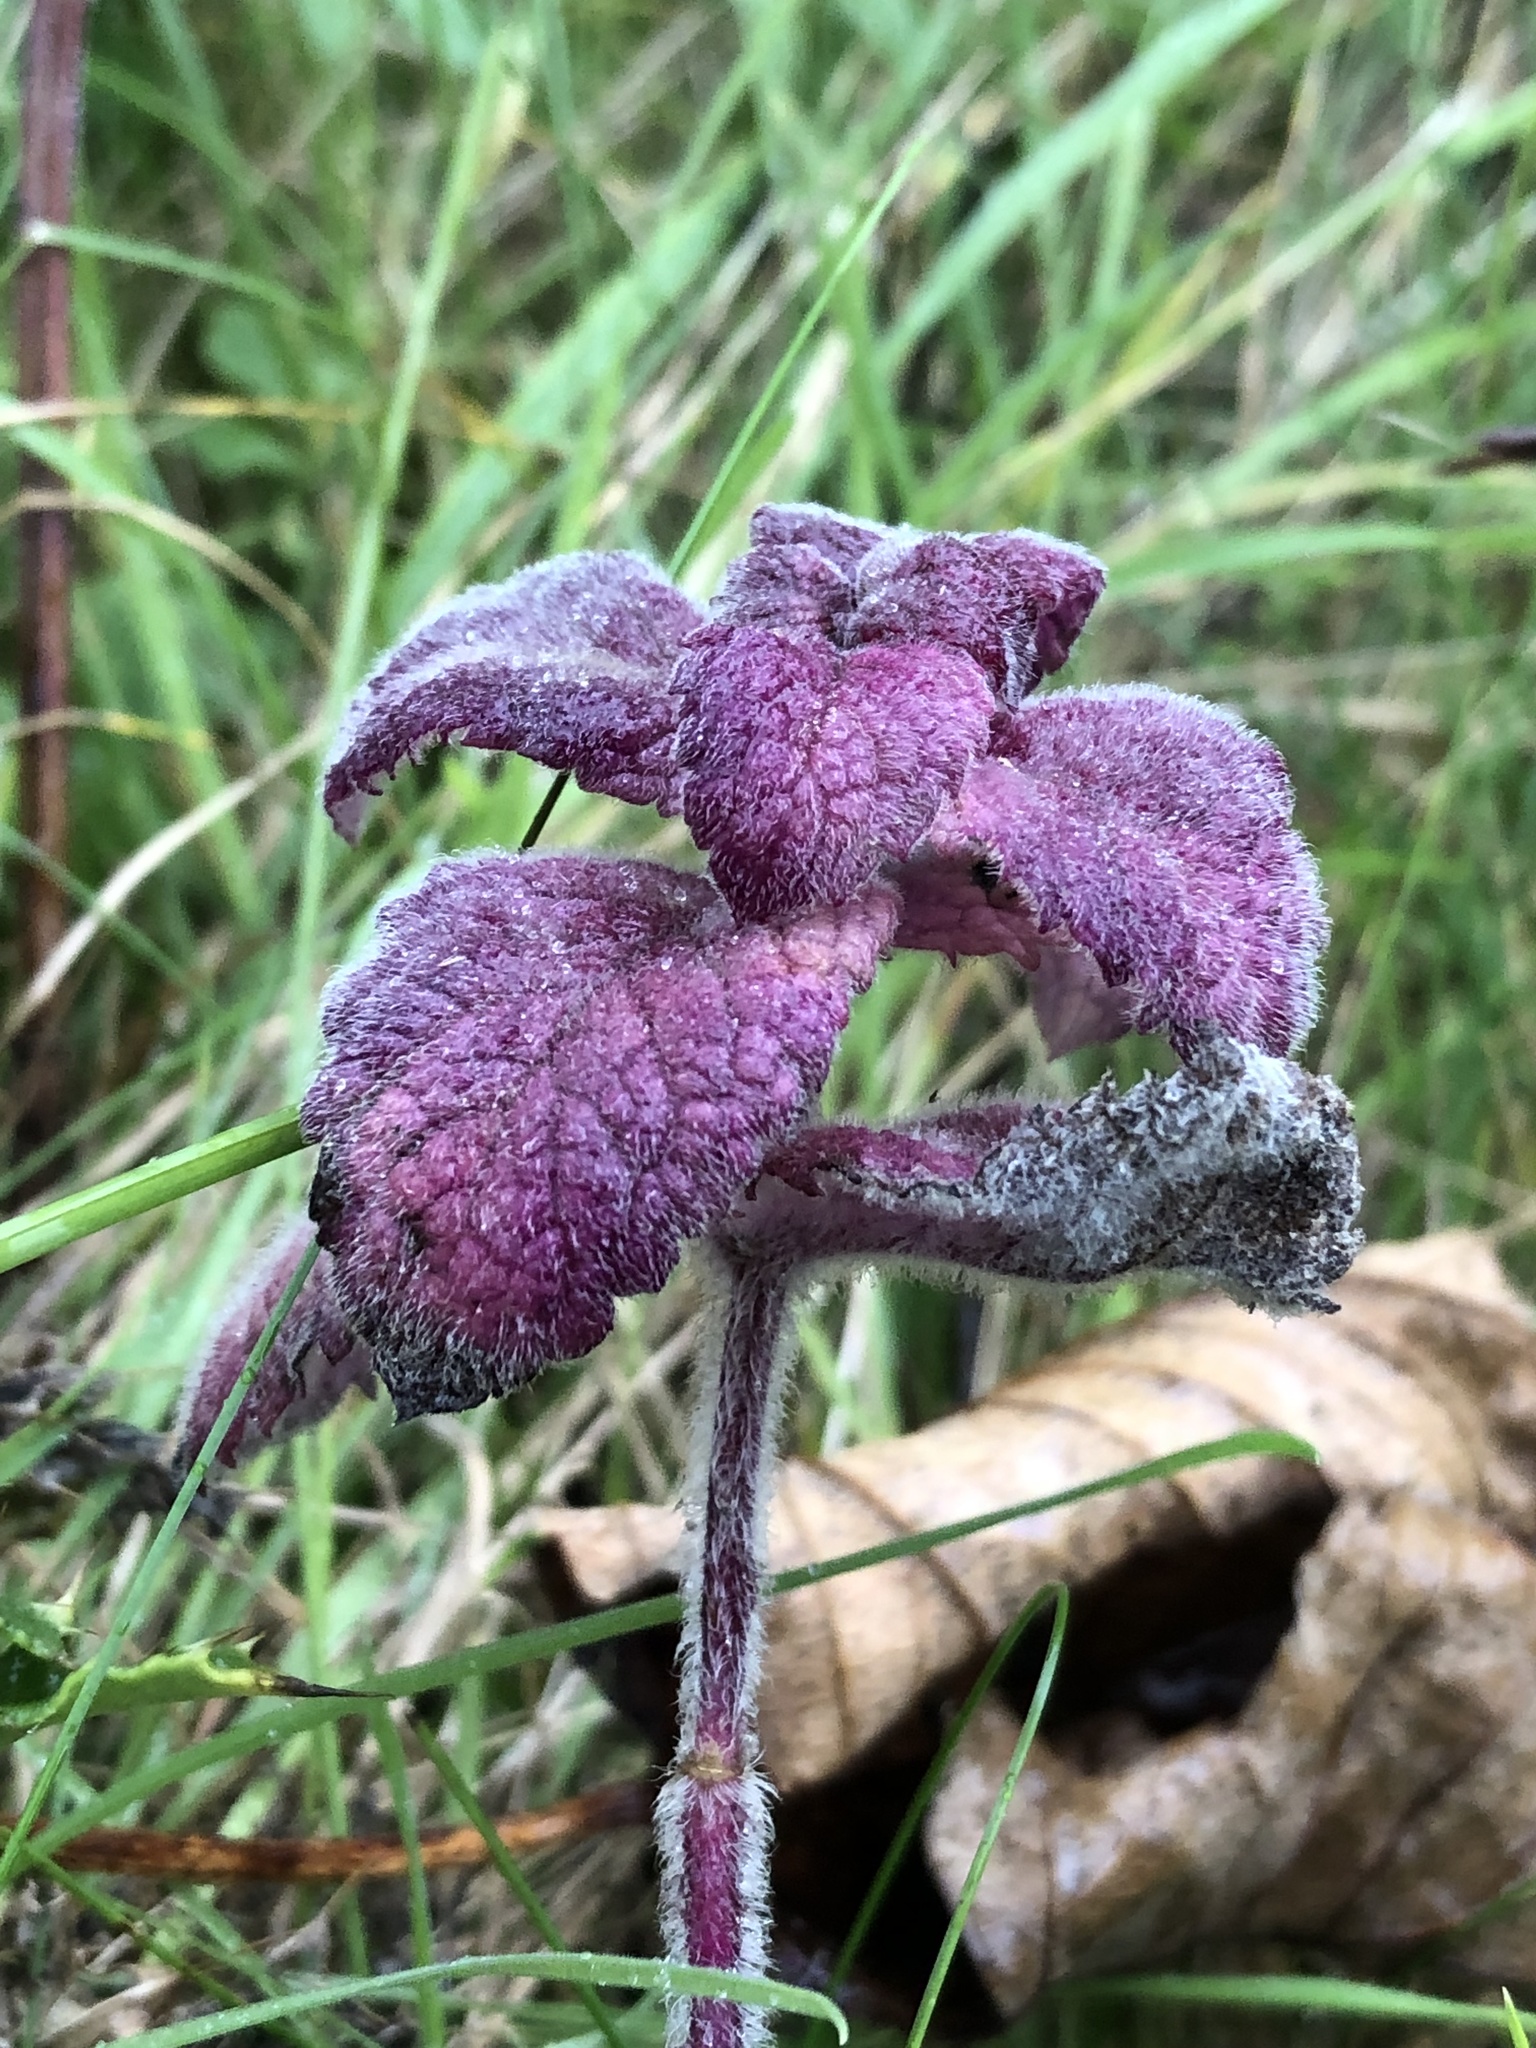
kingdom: Plantae
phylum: Tracheophyta
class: Magnoliopsida
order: Lamiales
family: Lamiaceae
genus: Lamium
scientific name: Lamium purpureum
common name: Red dead-nettle
